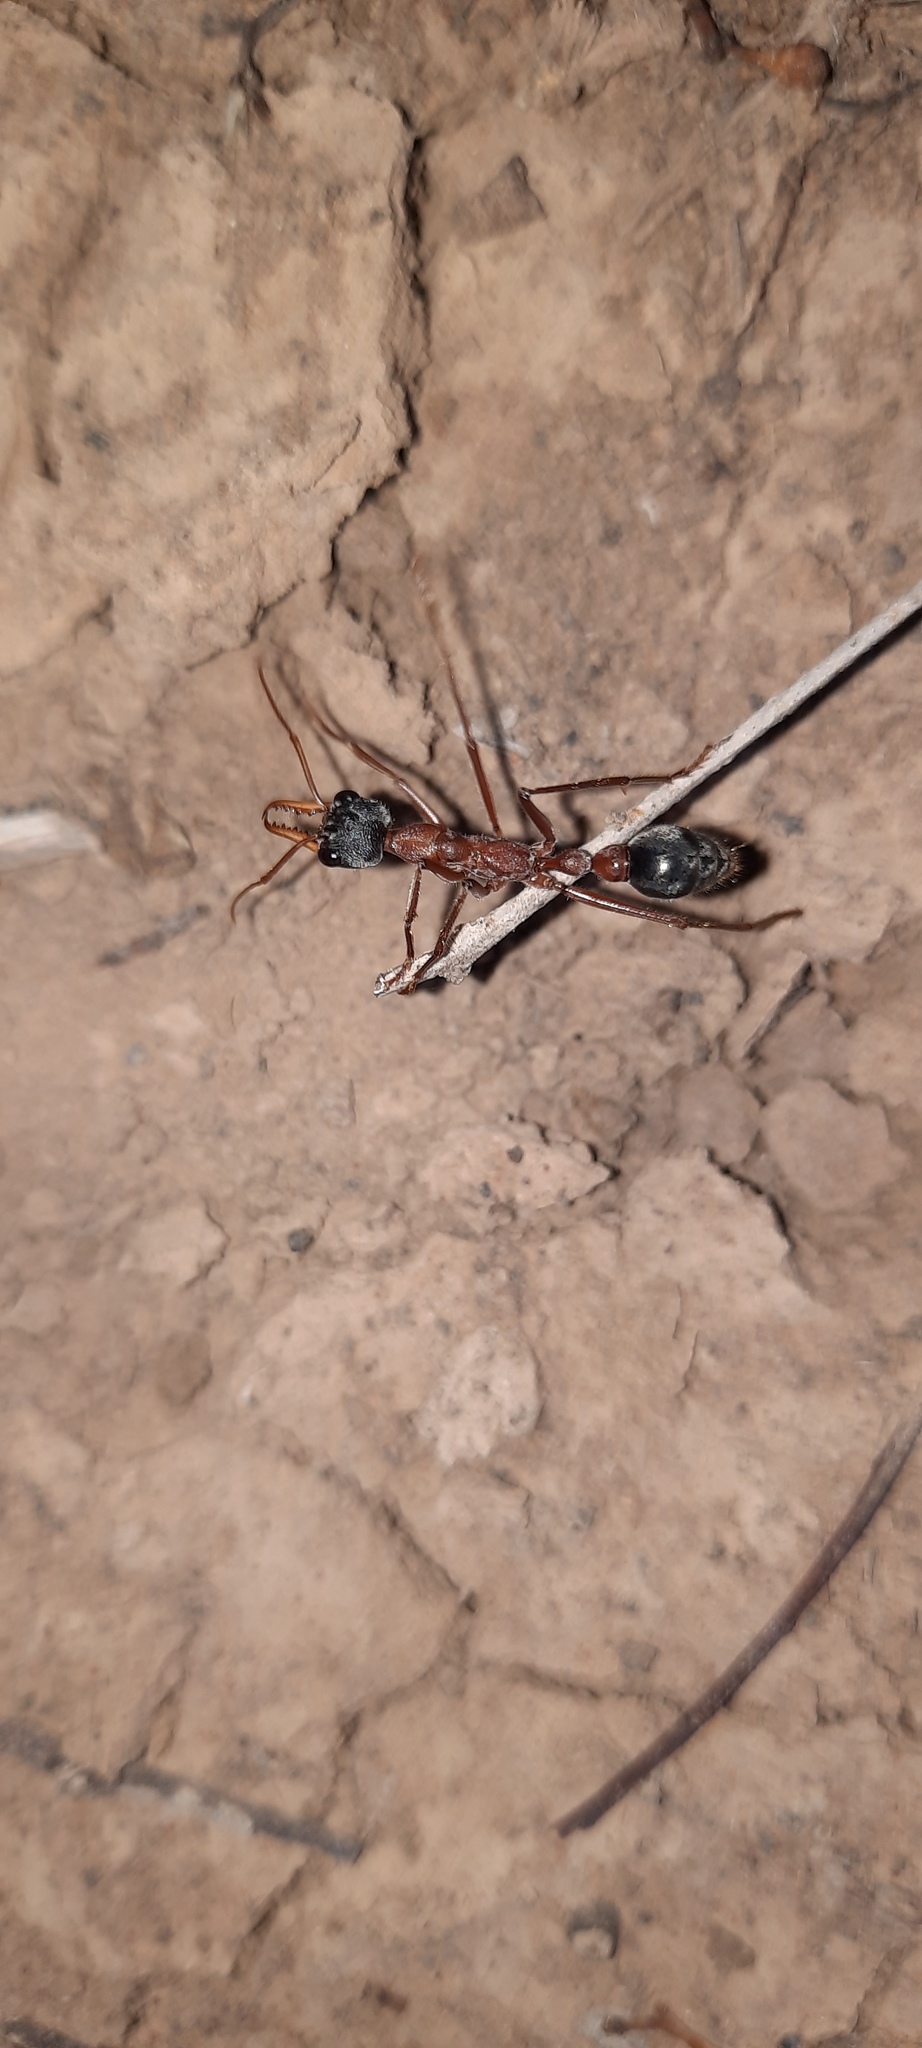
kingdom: Animalia
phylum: Arthropoda
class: Insecta
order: Hymenoptera
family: Formicidae
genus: Myrmecia
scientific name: Myrmecia nigriceps
